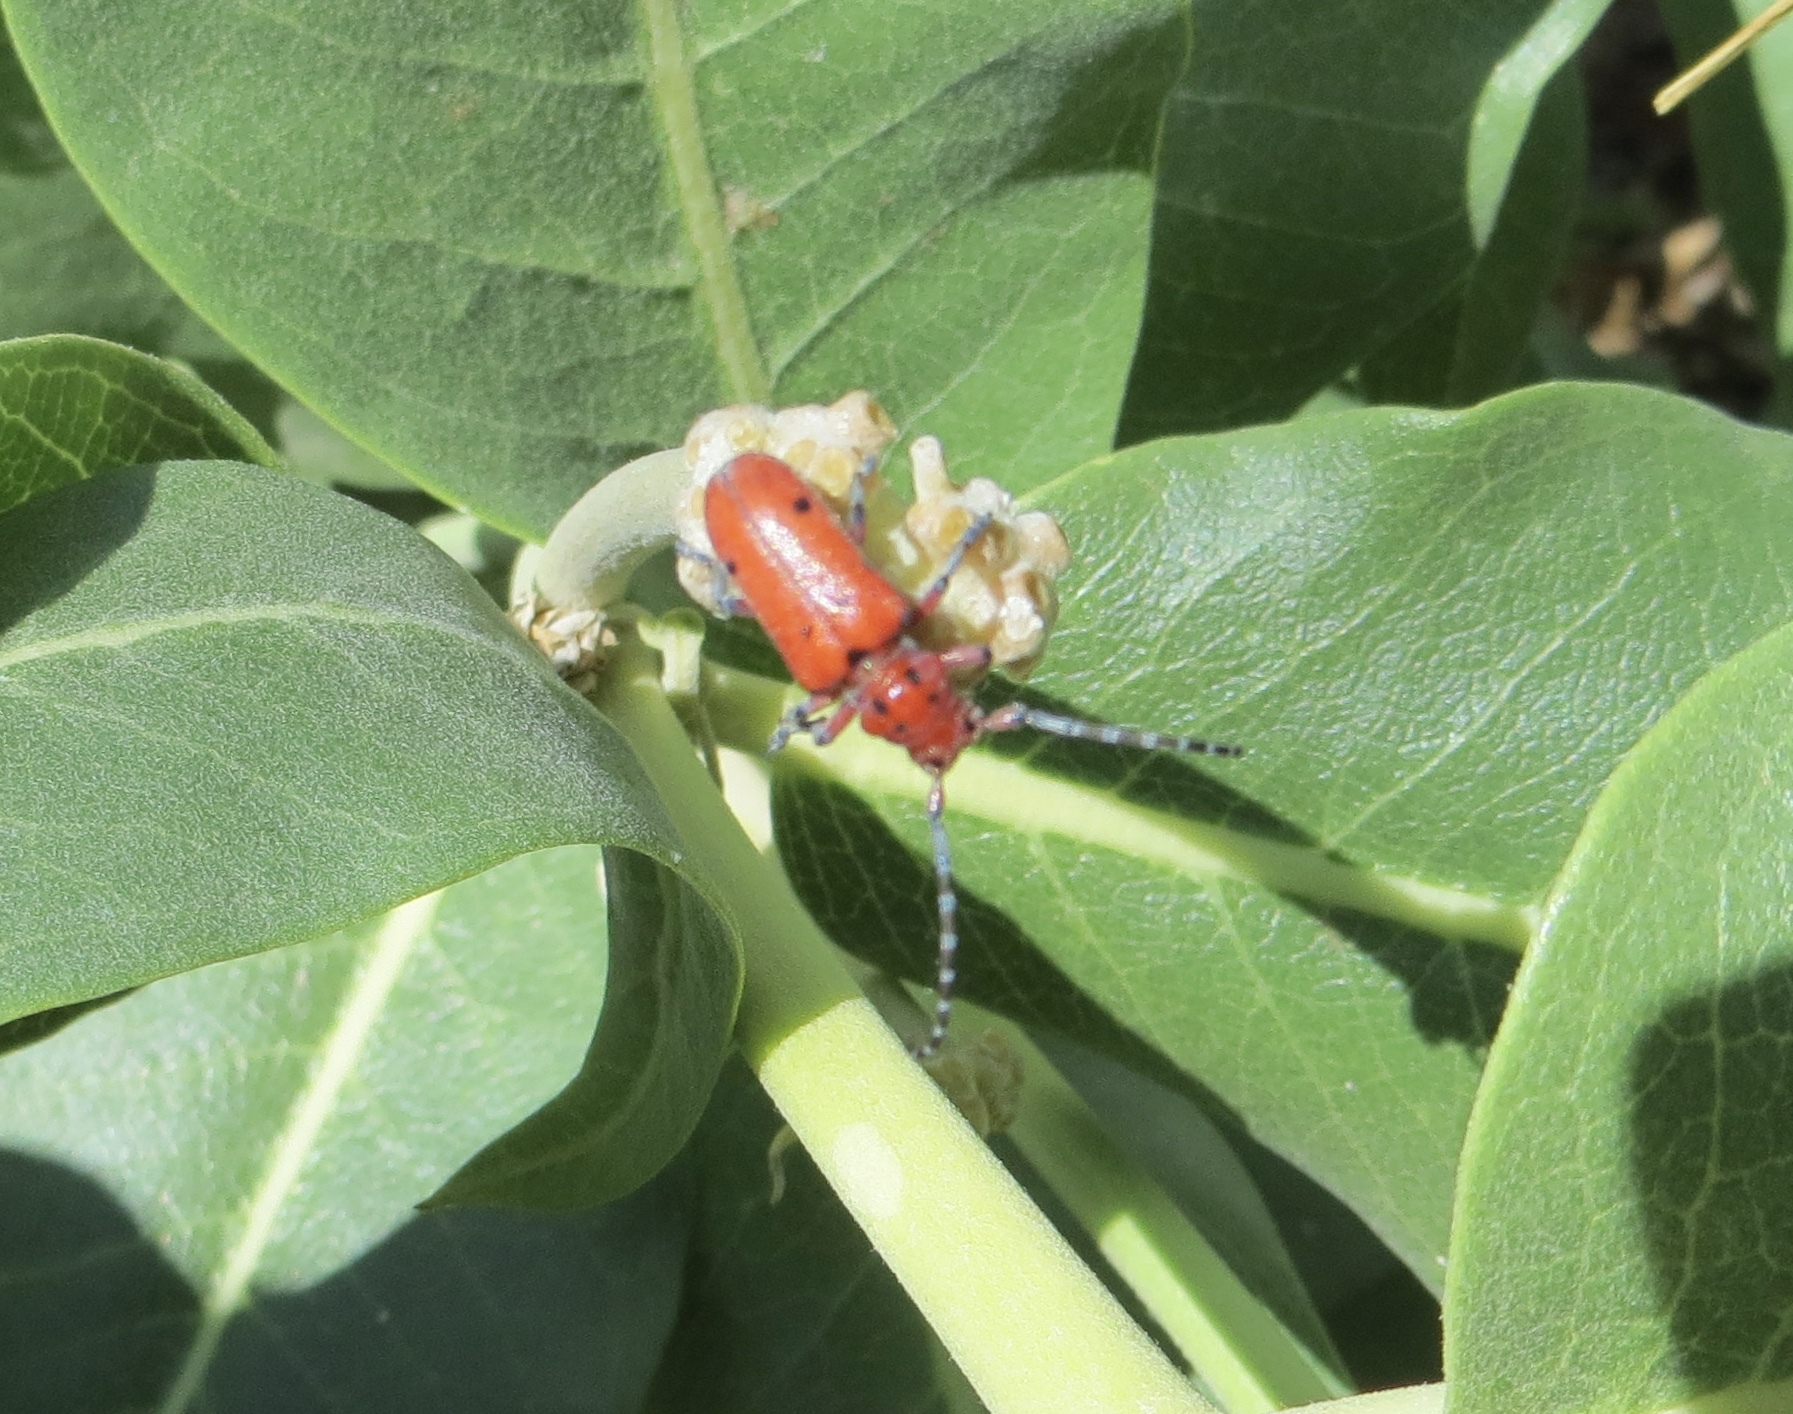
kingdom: Animalia
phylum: Arthropoda
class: Insecta
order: Coleoptera
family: Cerambycidae
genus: Tetraopes
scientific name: Tetraopes femoratus
